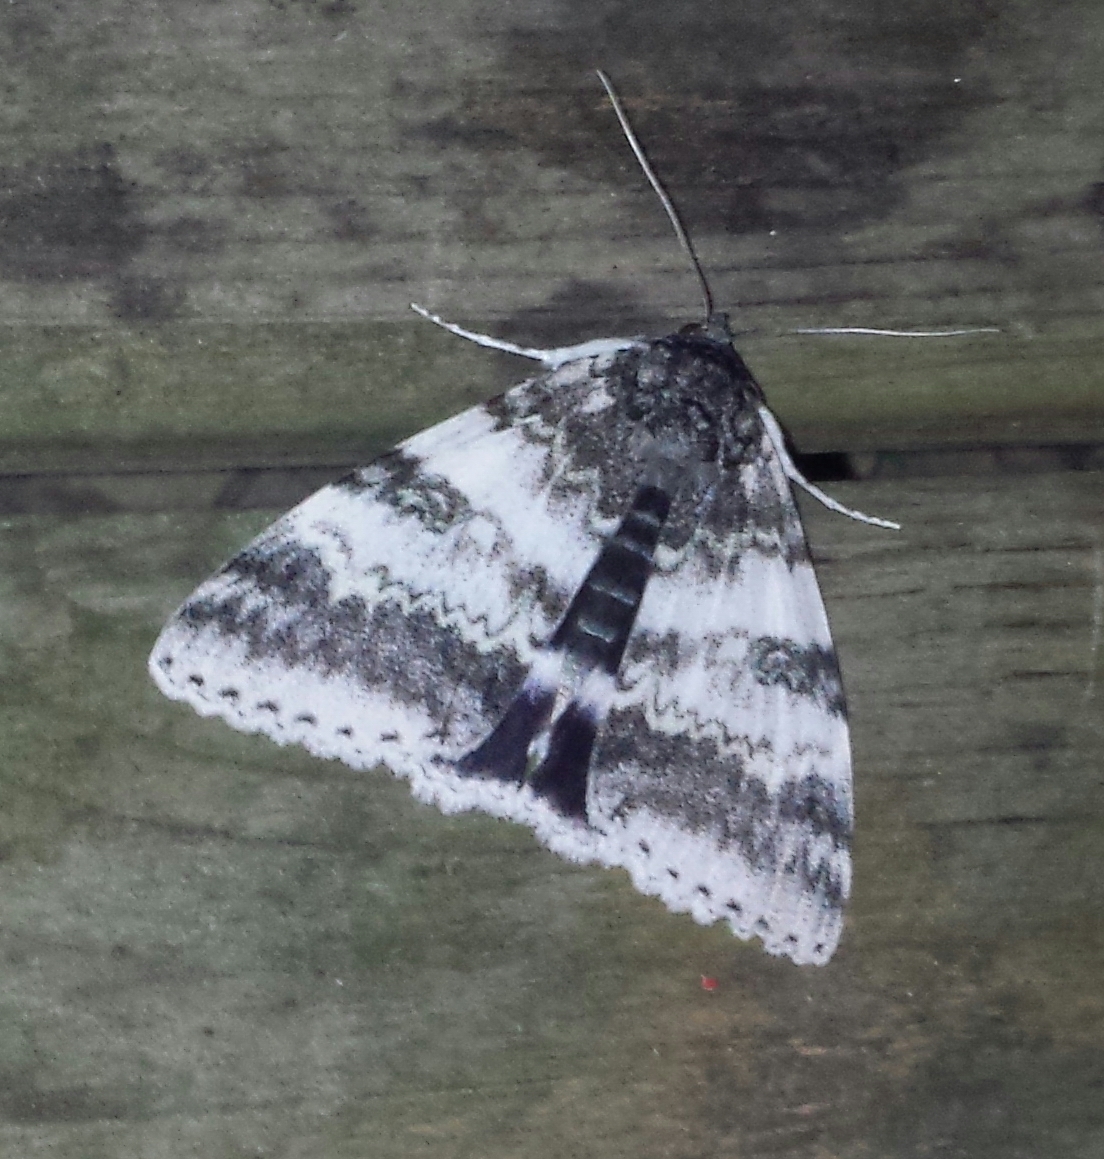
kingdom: Animalia
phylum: Arthropoda
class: Insecta
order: Lepidoptera
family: Erebidae
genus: Catocala
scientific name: Catocala relicta
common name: White underwing
